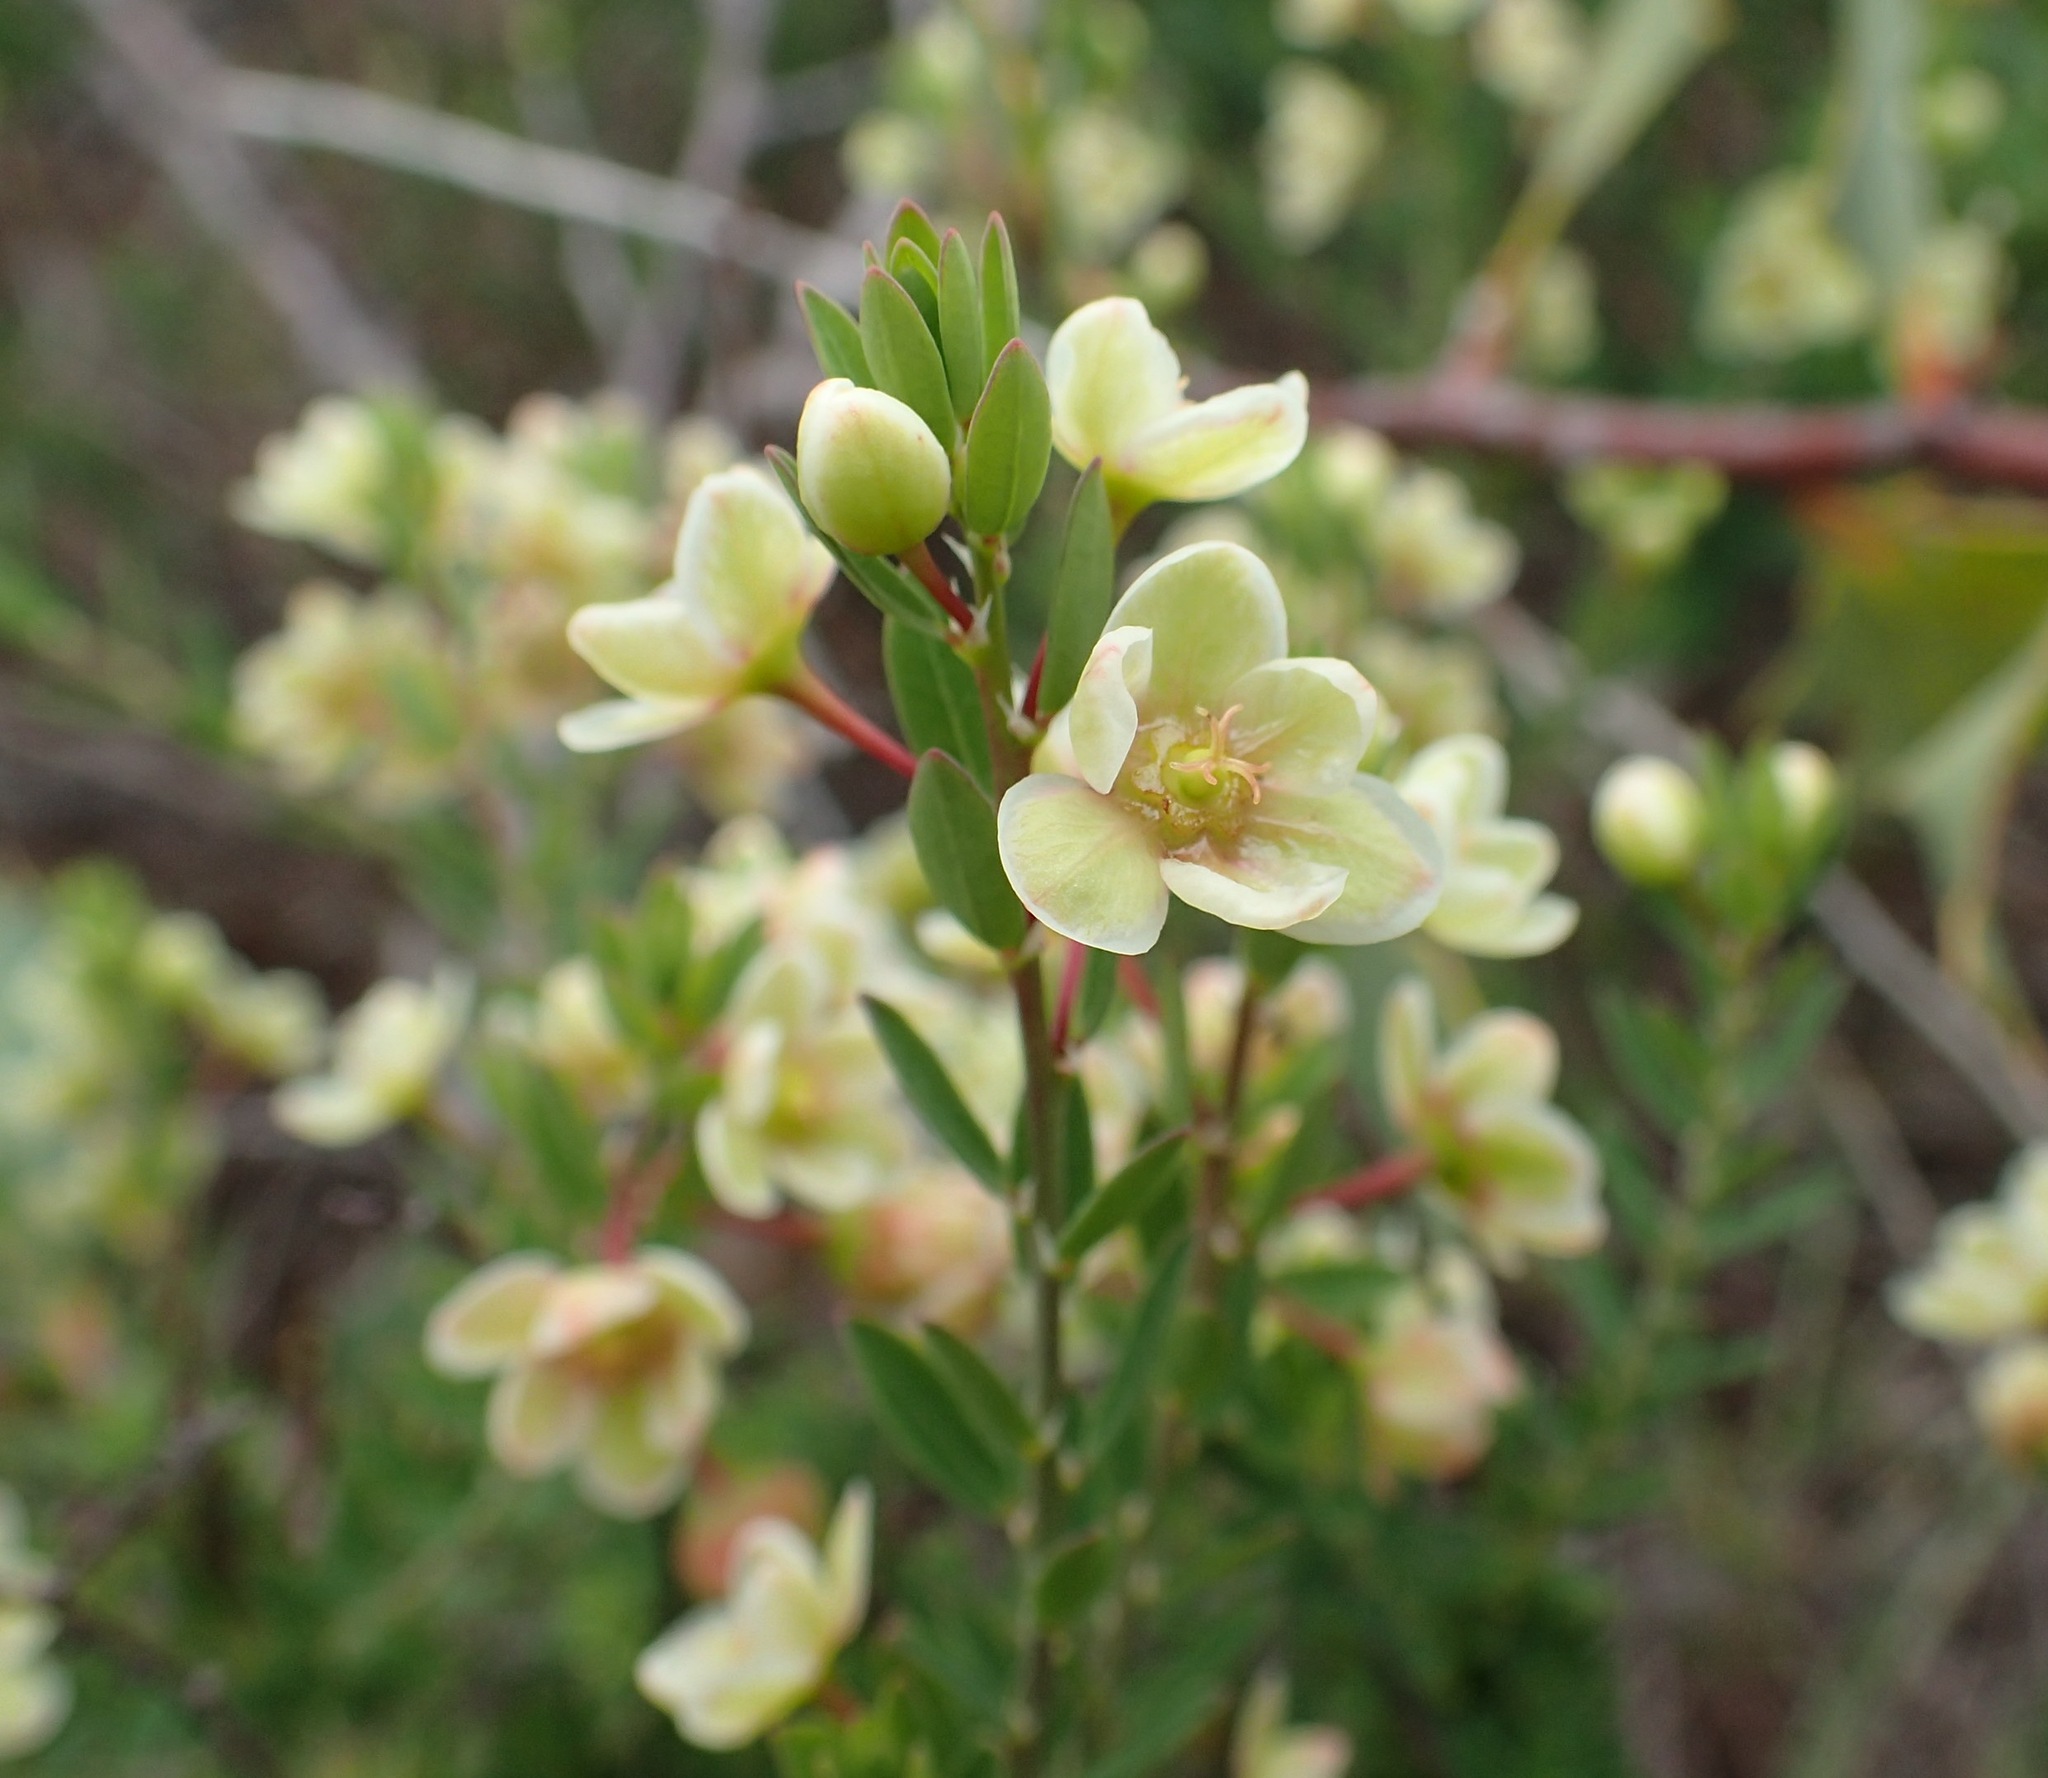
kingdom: Plantae
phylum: Tracheophyta
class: Magnoliopsida
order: Malpighiales
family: Phyllanthaceae
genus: Phyllanthus
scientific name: Phyllanthus calycinus
